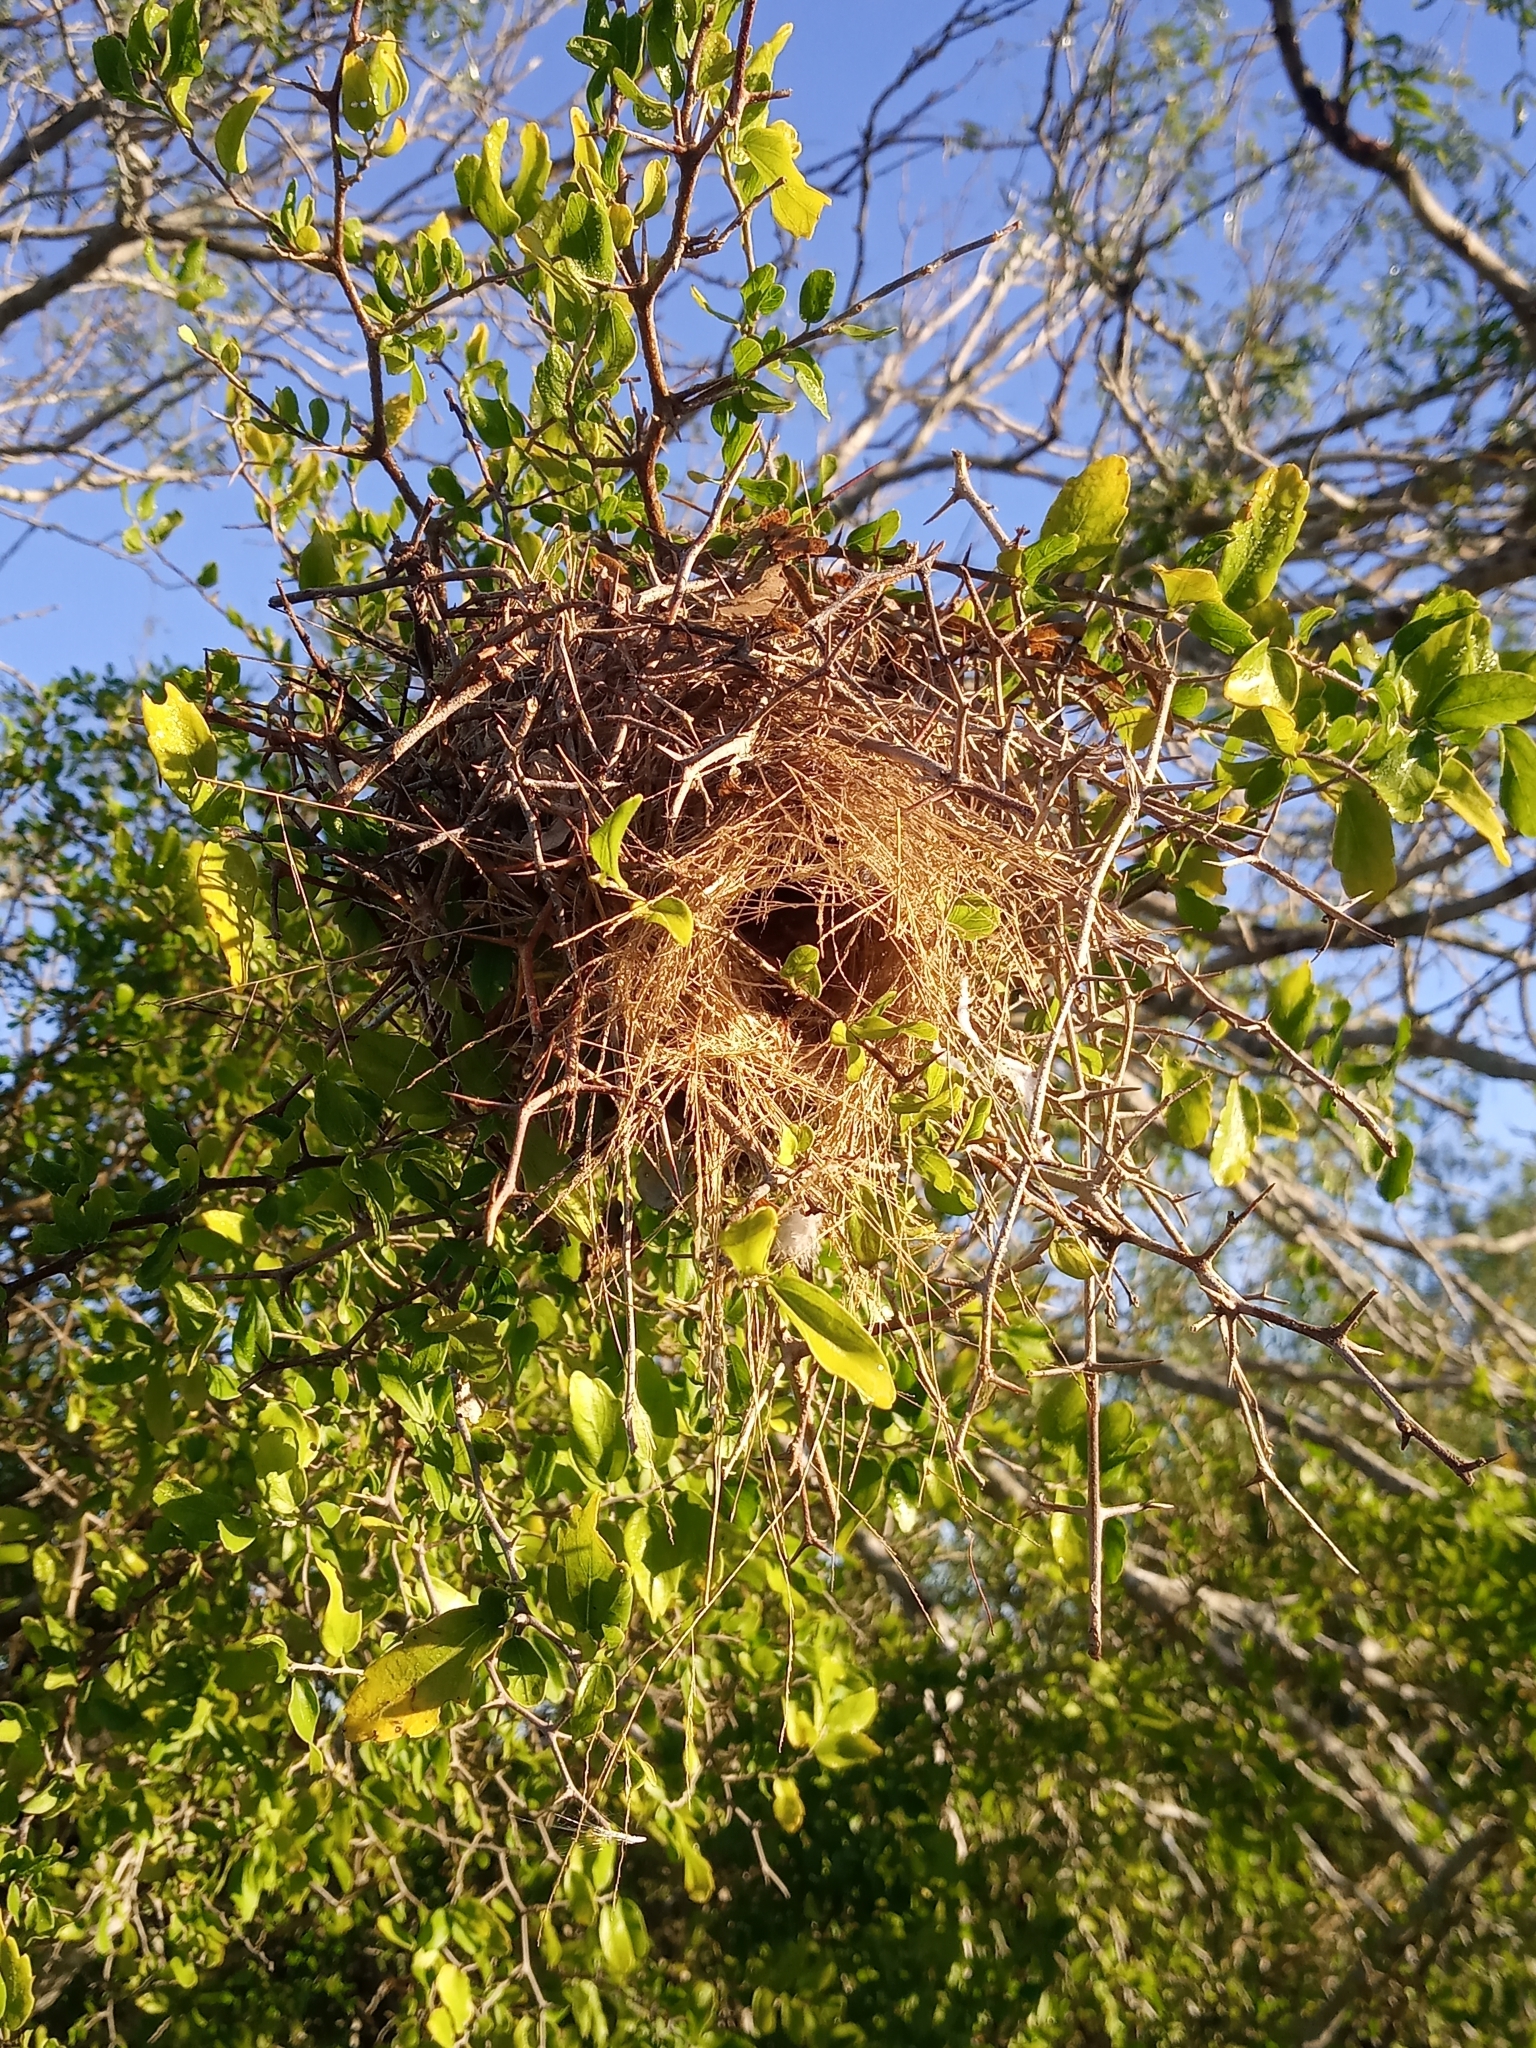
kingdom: Animalia
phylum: Chordata
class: Aves
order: Passeriformes
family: Remizidae
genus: Auriparus
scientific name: Auriparus flaviceps
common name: Verdin
